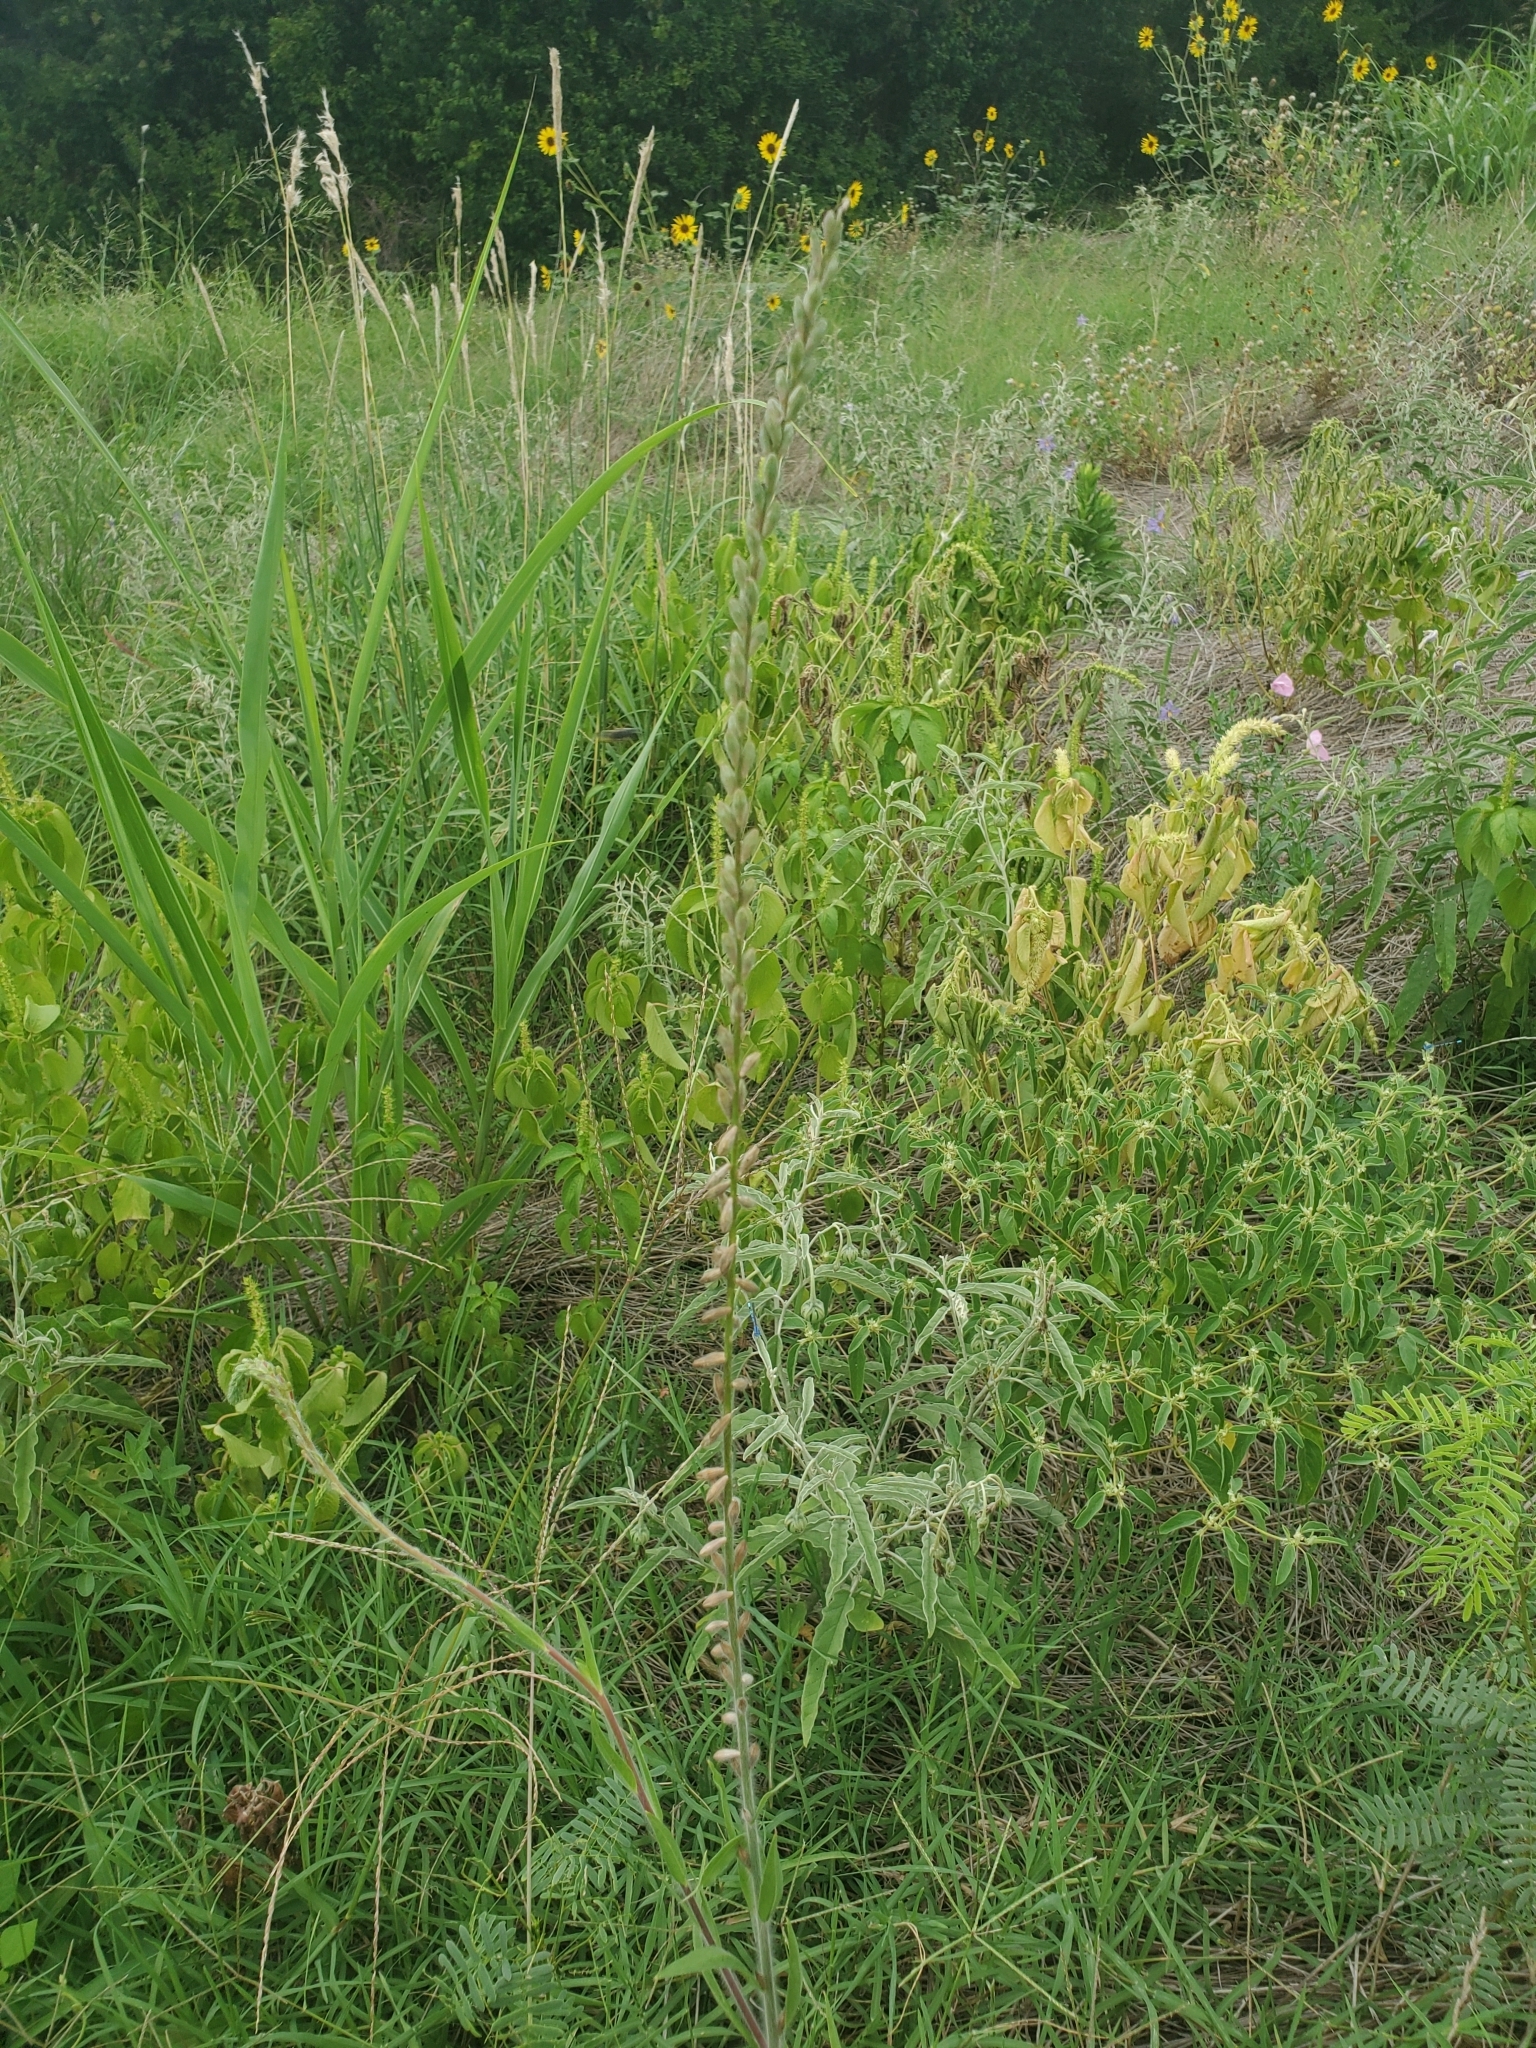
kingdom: Plantae
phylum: Tracheophyta
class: Magnoliopsida
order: Myrtales
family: Onagraceae
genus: Oenothera
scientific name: Oenothera curtiflora
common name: Velvetweed
